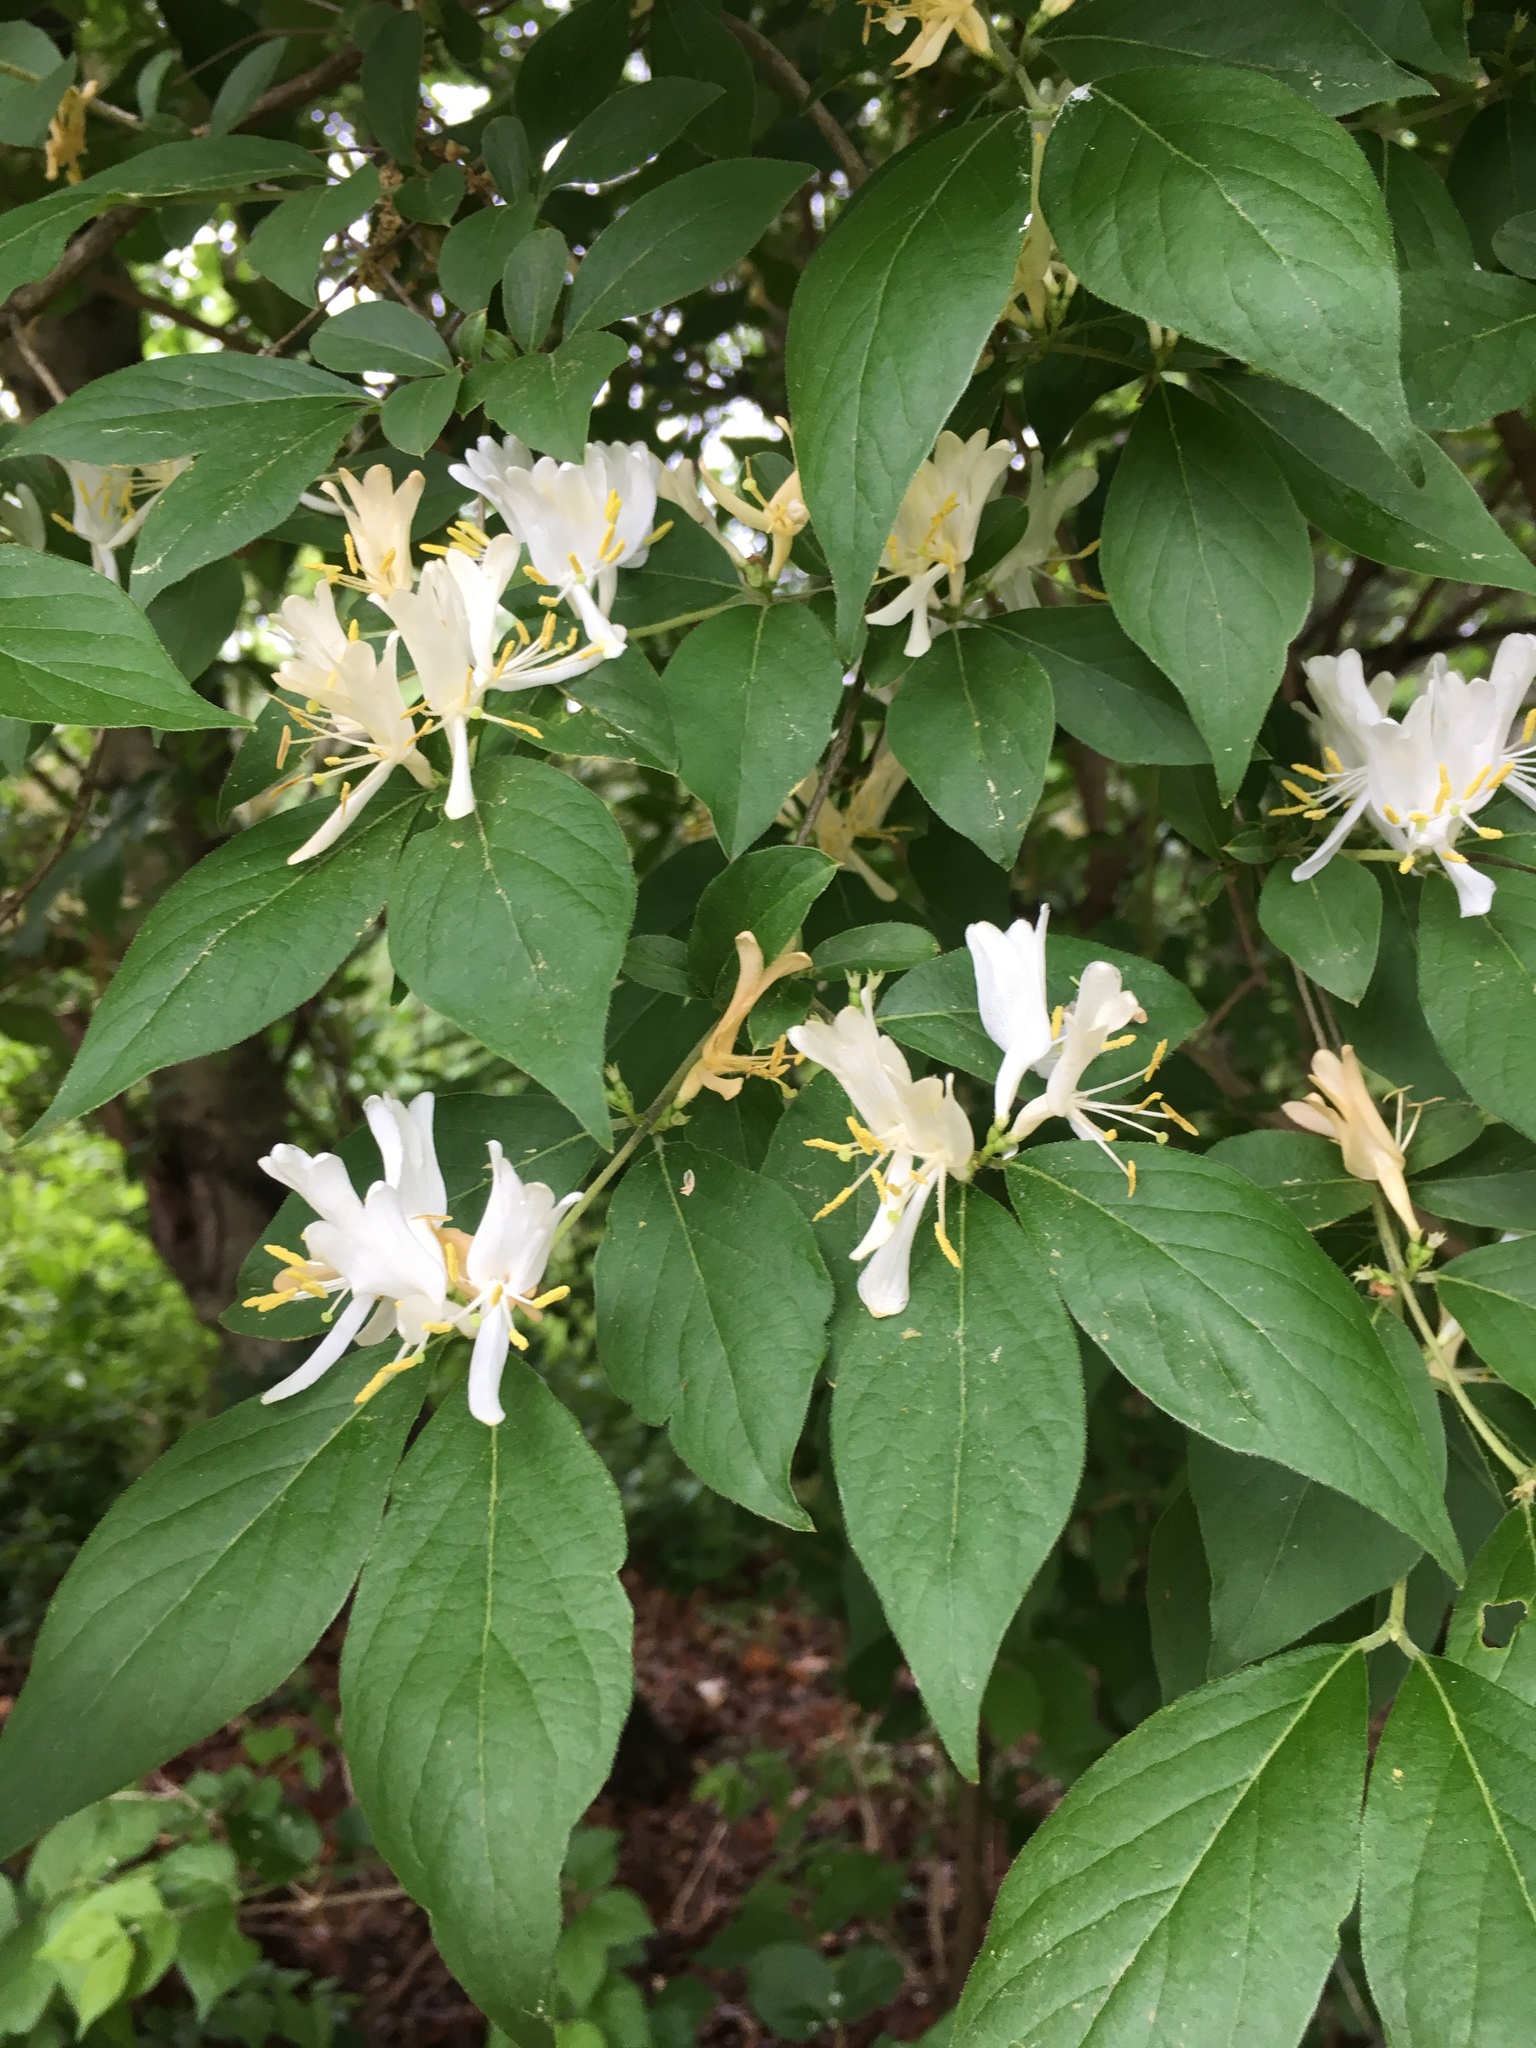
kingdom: Plantae
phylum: Tracheophyta
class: Magnoliopsida
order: Dipsacales
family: Caprifoliaceae
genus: Lonicera
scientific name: Lonicera maackii
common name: Amur honeysuckle
